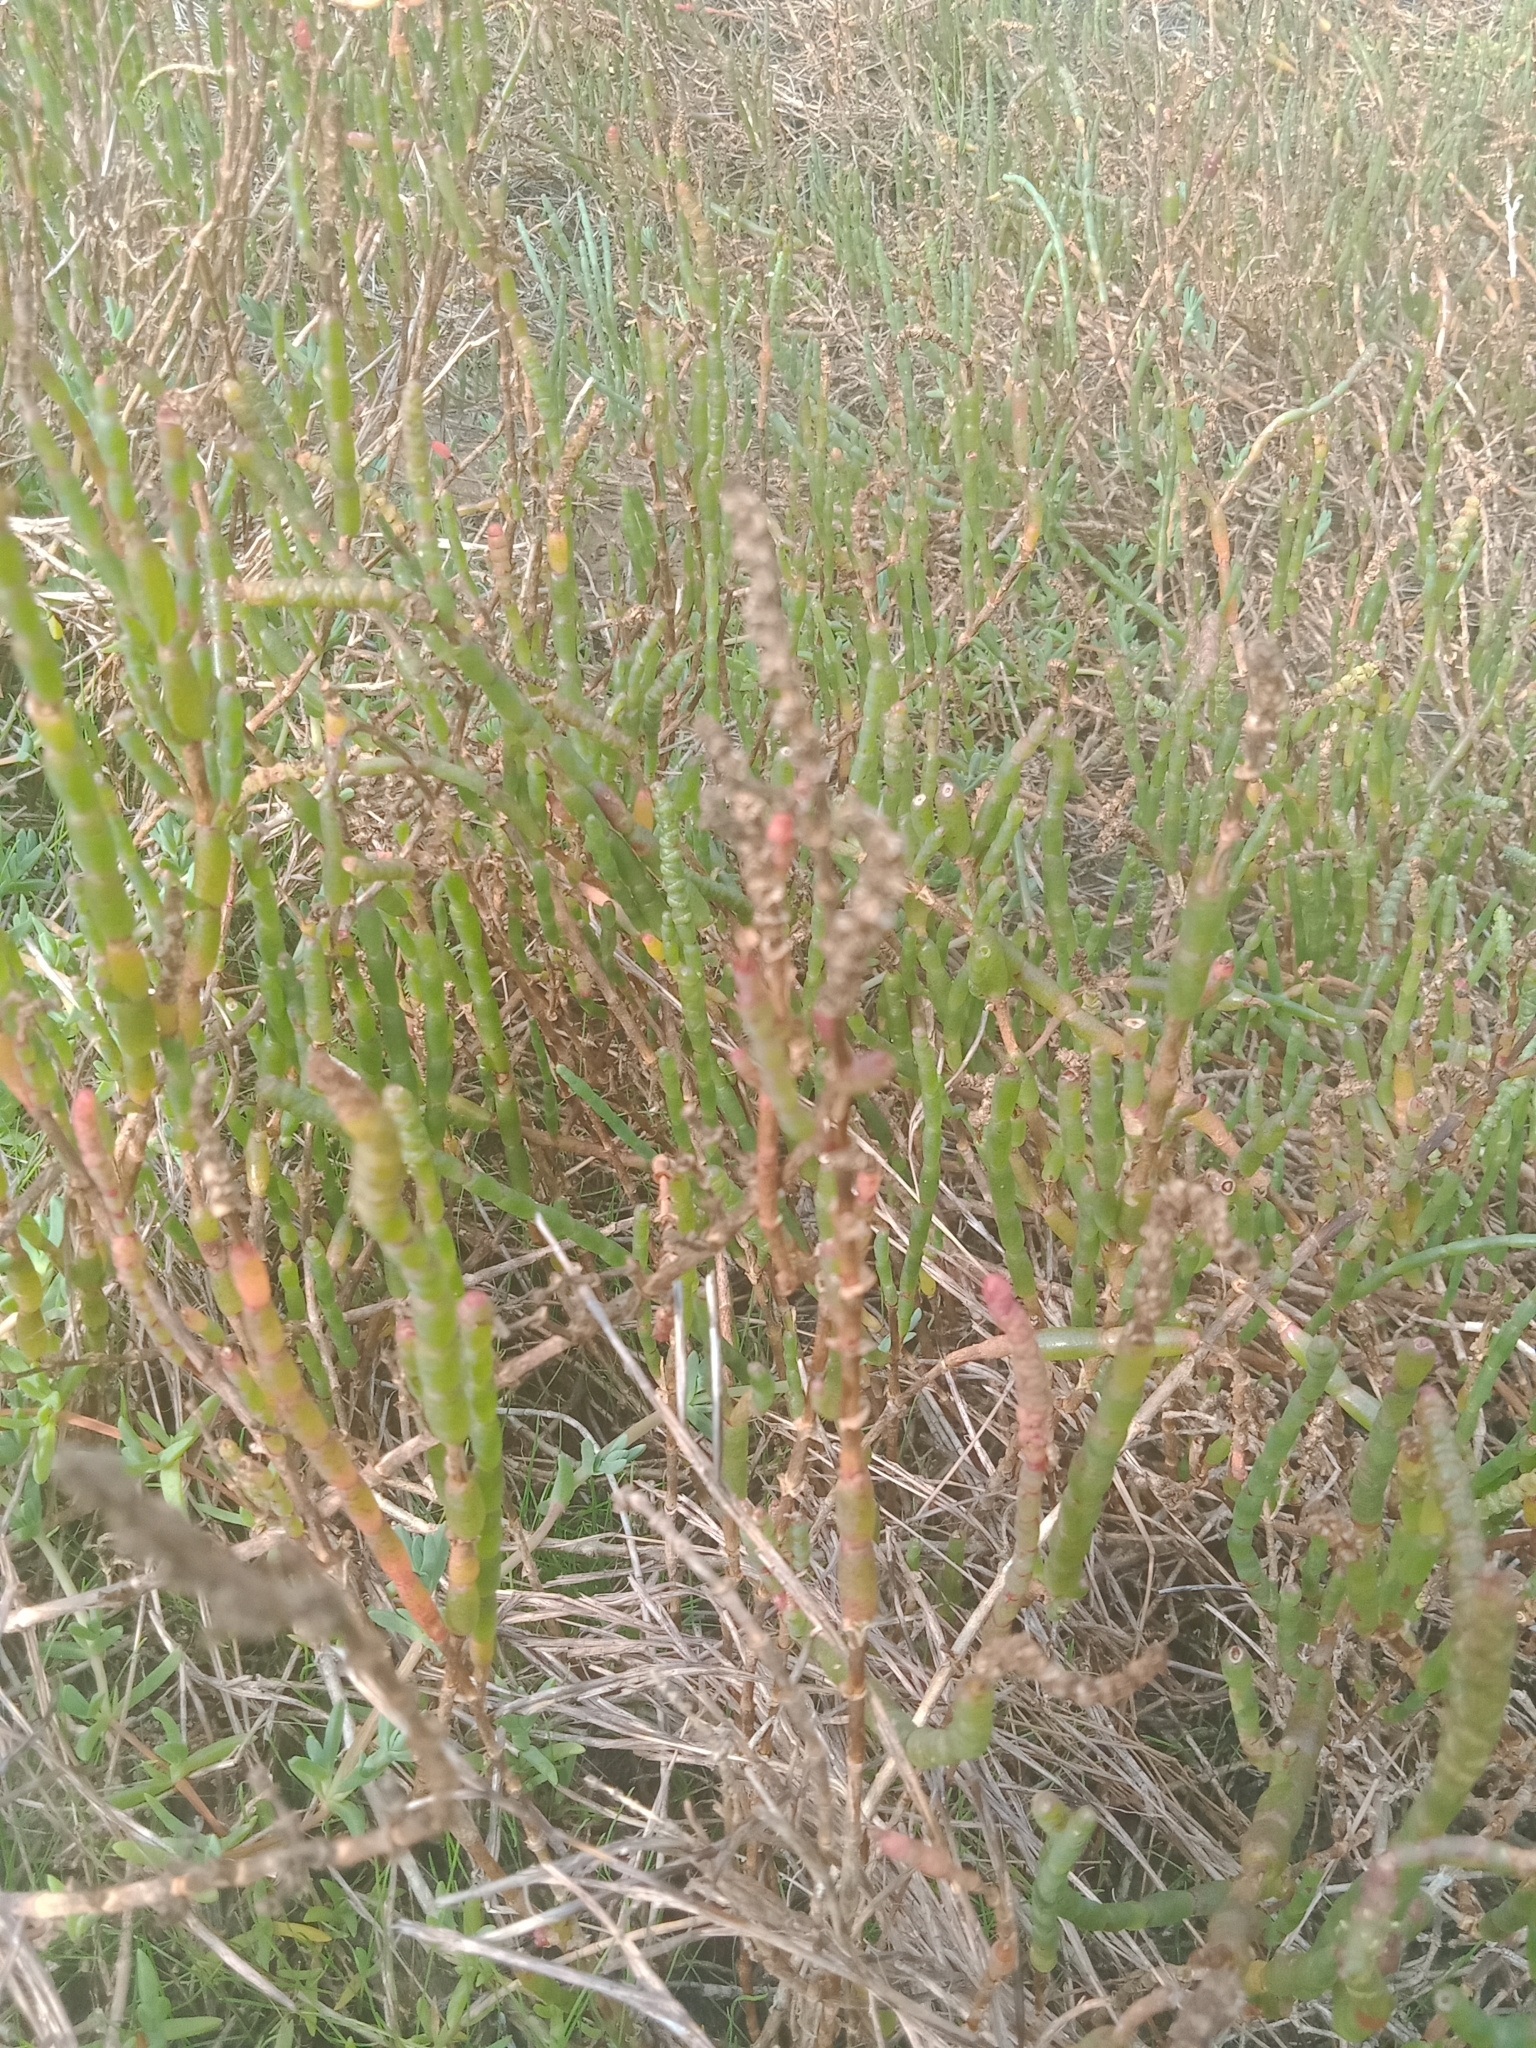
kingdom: Plantae
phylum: Tracheophyta
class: Magnoliopsida
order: Caryophyllales
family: Amaranthaceae
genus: Salicornia
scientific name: Salicornia quinqueflora
